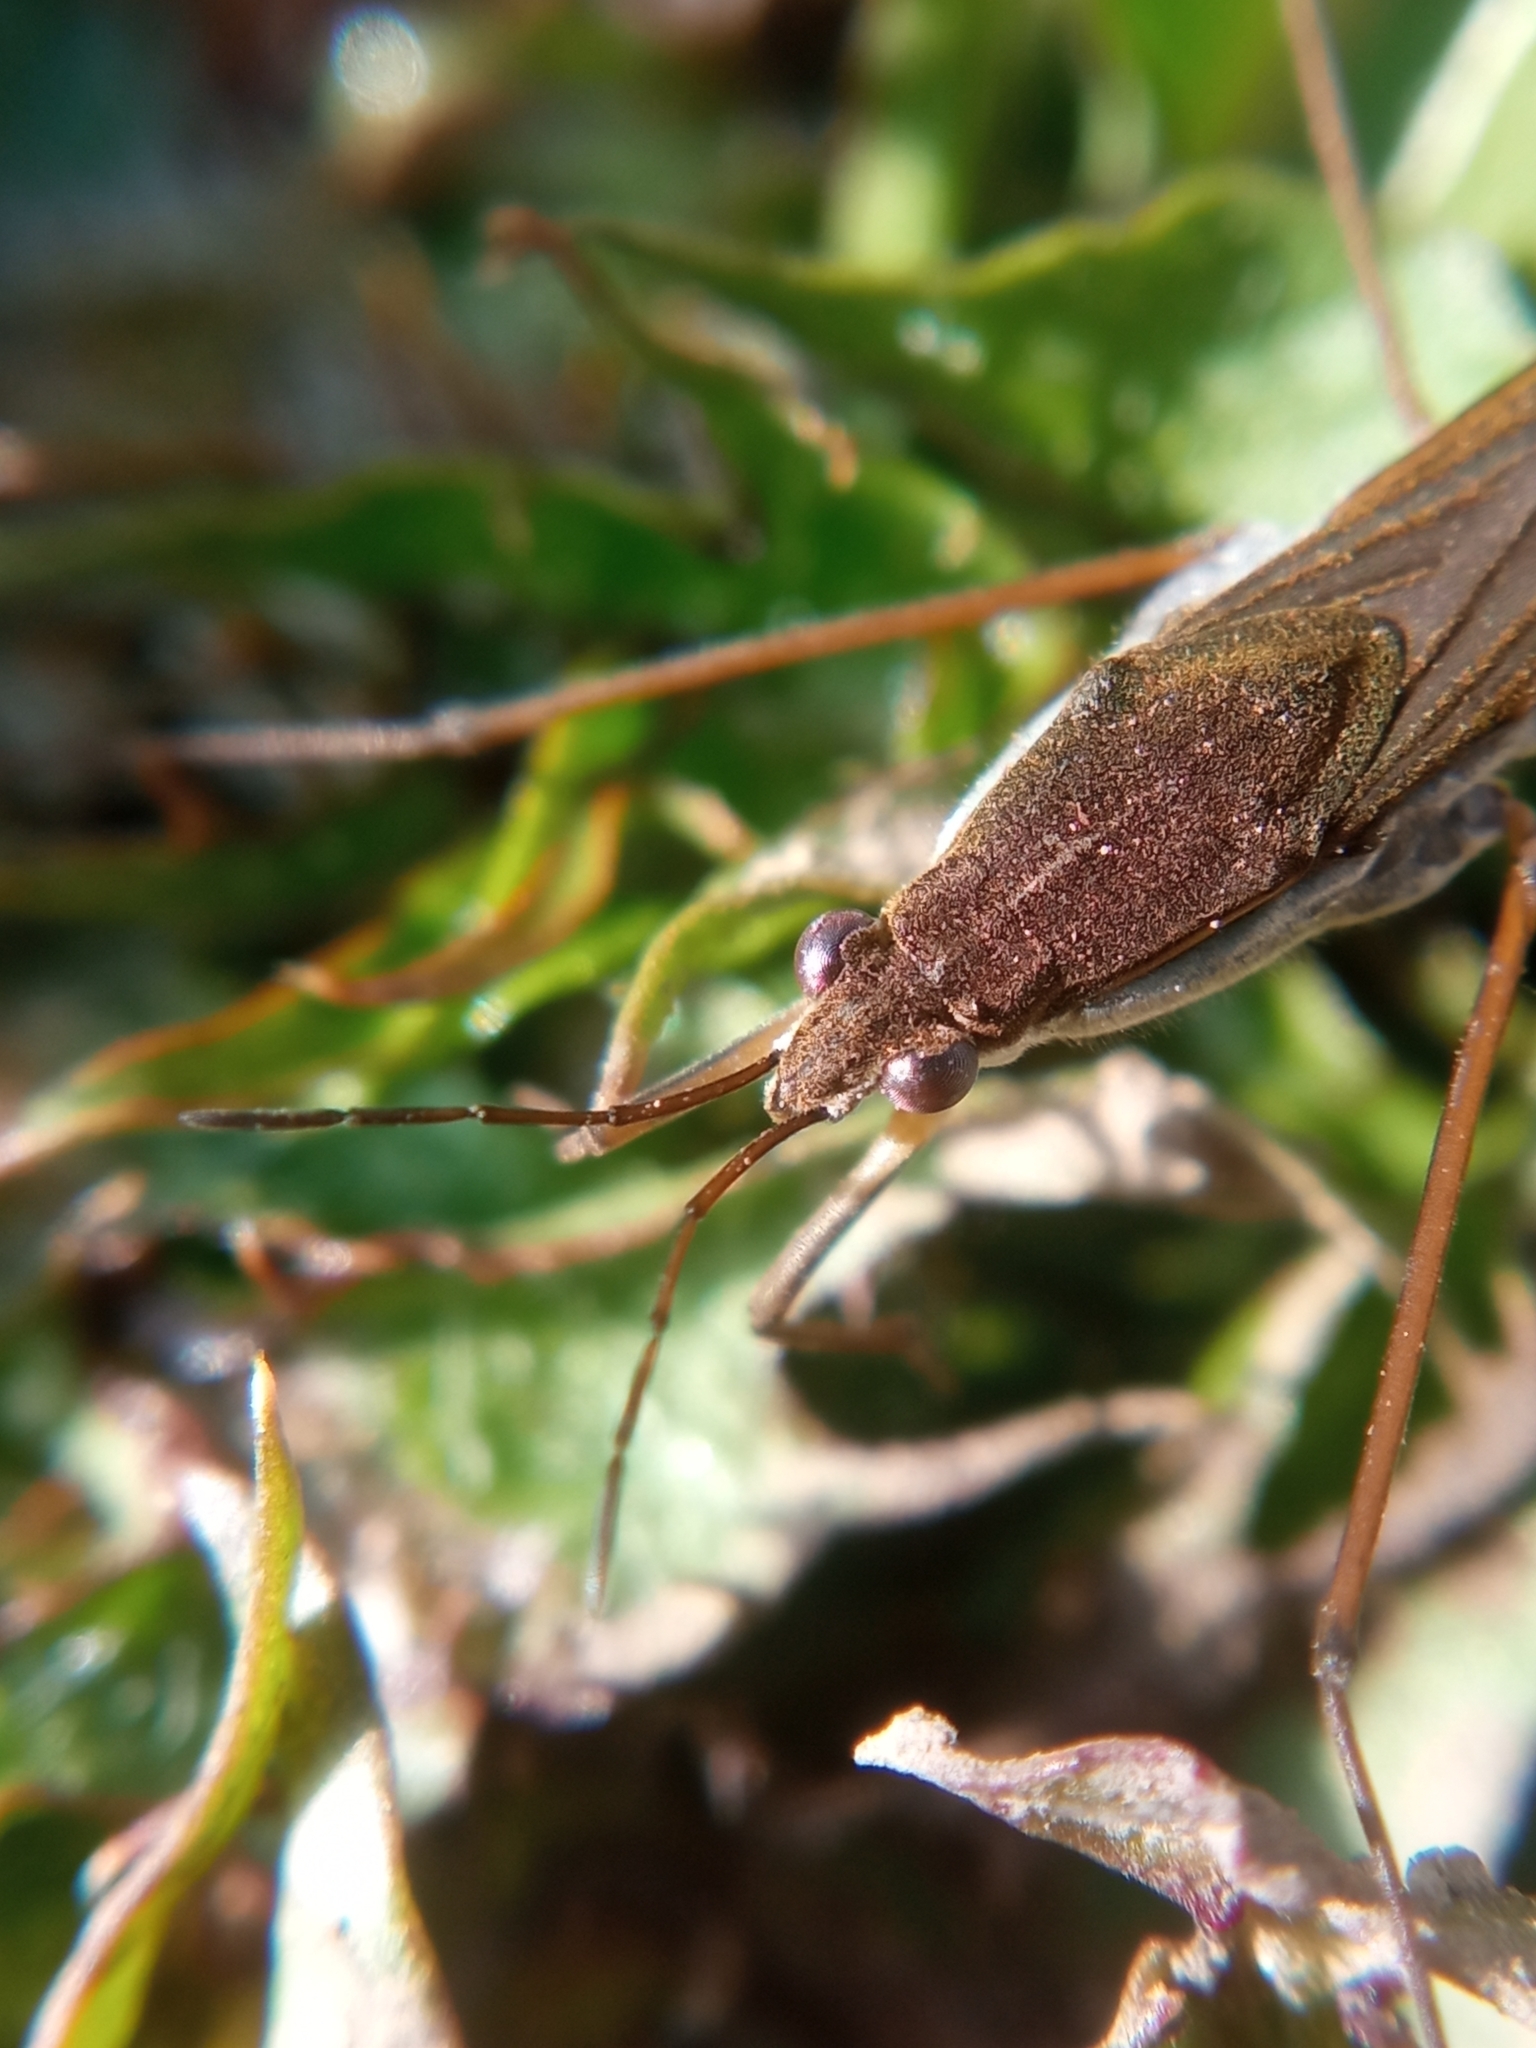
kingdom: Animalia
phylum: Arthropoda
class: Insecta
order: Hemiptera
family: Gerridae
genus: Gerris
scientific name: Gerris gibbifer
